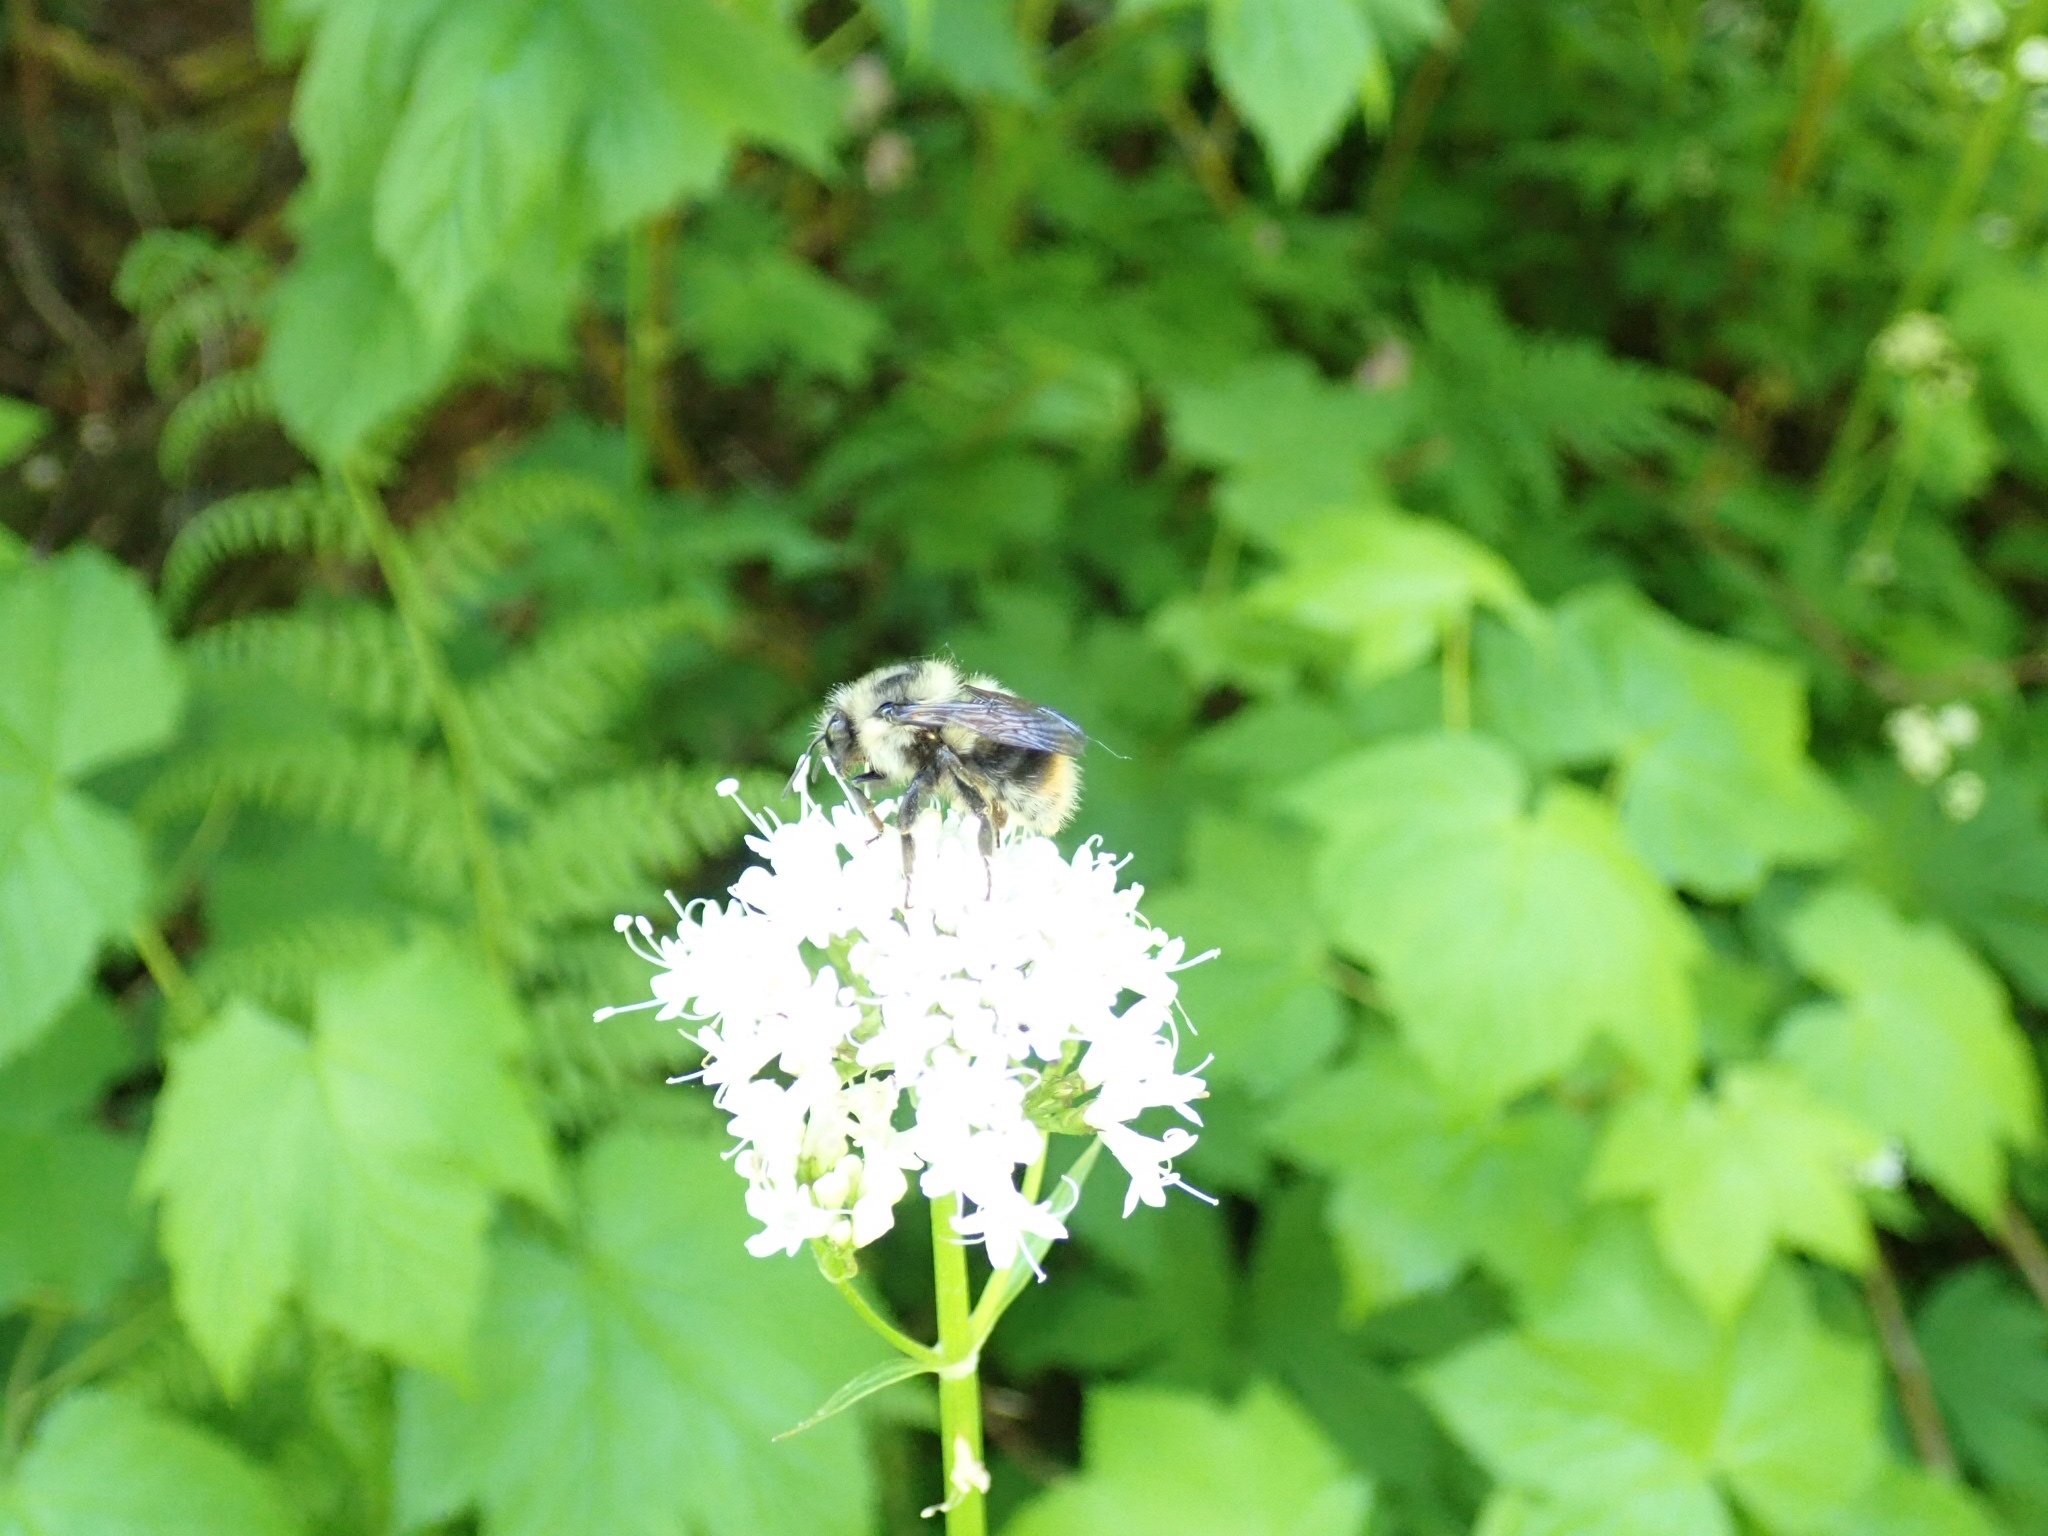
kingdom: Animalia
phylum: Arthropoda
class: Insecta
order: Hymenoptera
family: Apidae
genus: Bombus
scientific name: Bombus mixtus
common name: Fuzzy-horned bumble bee
